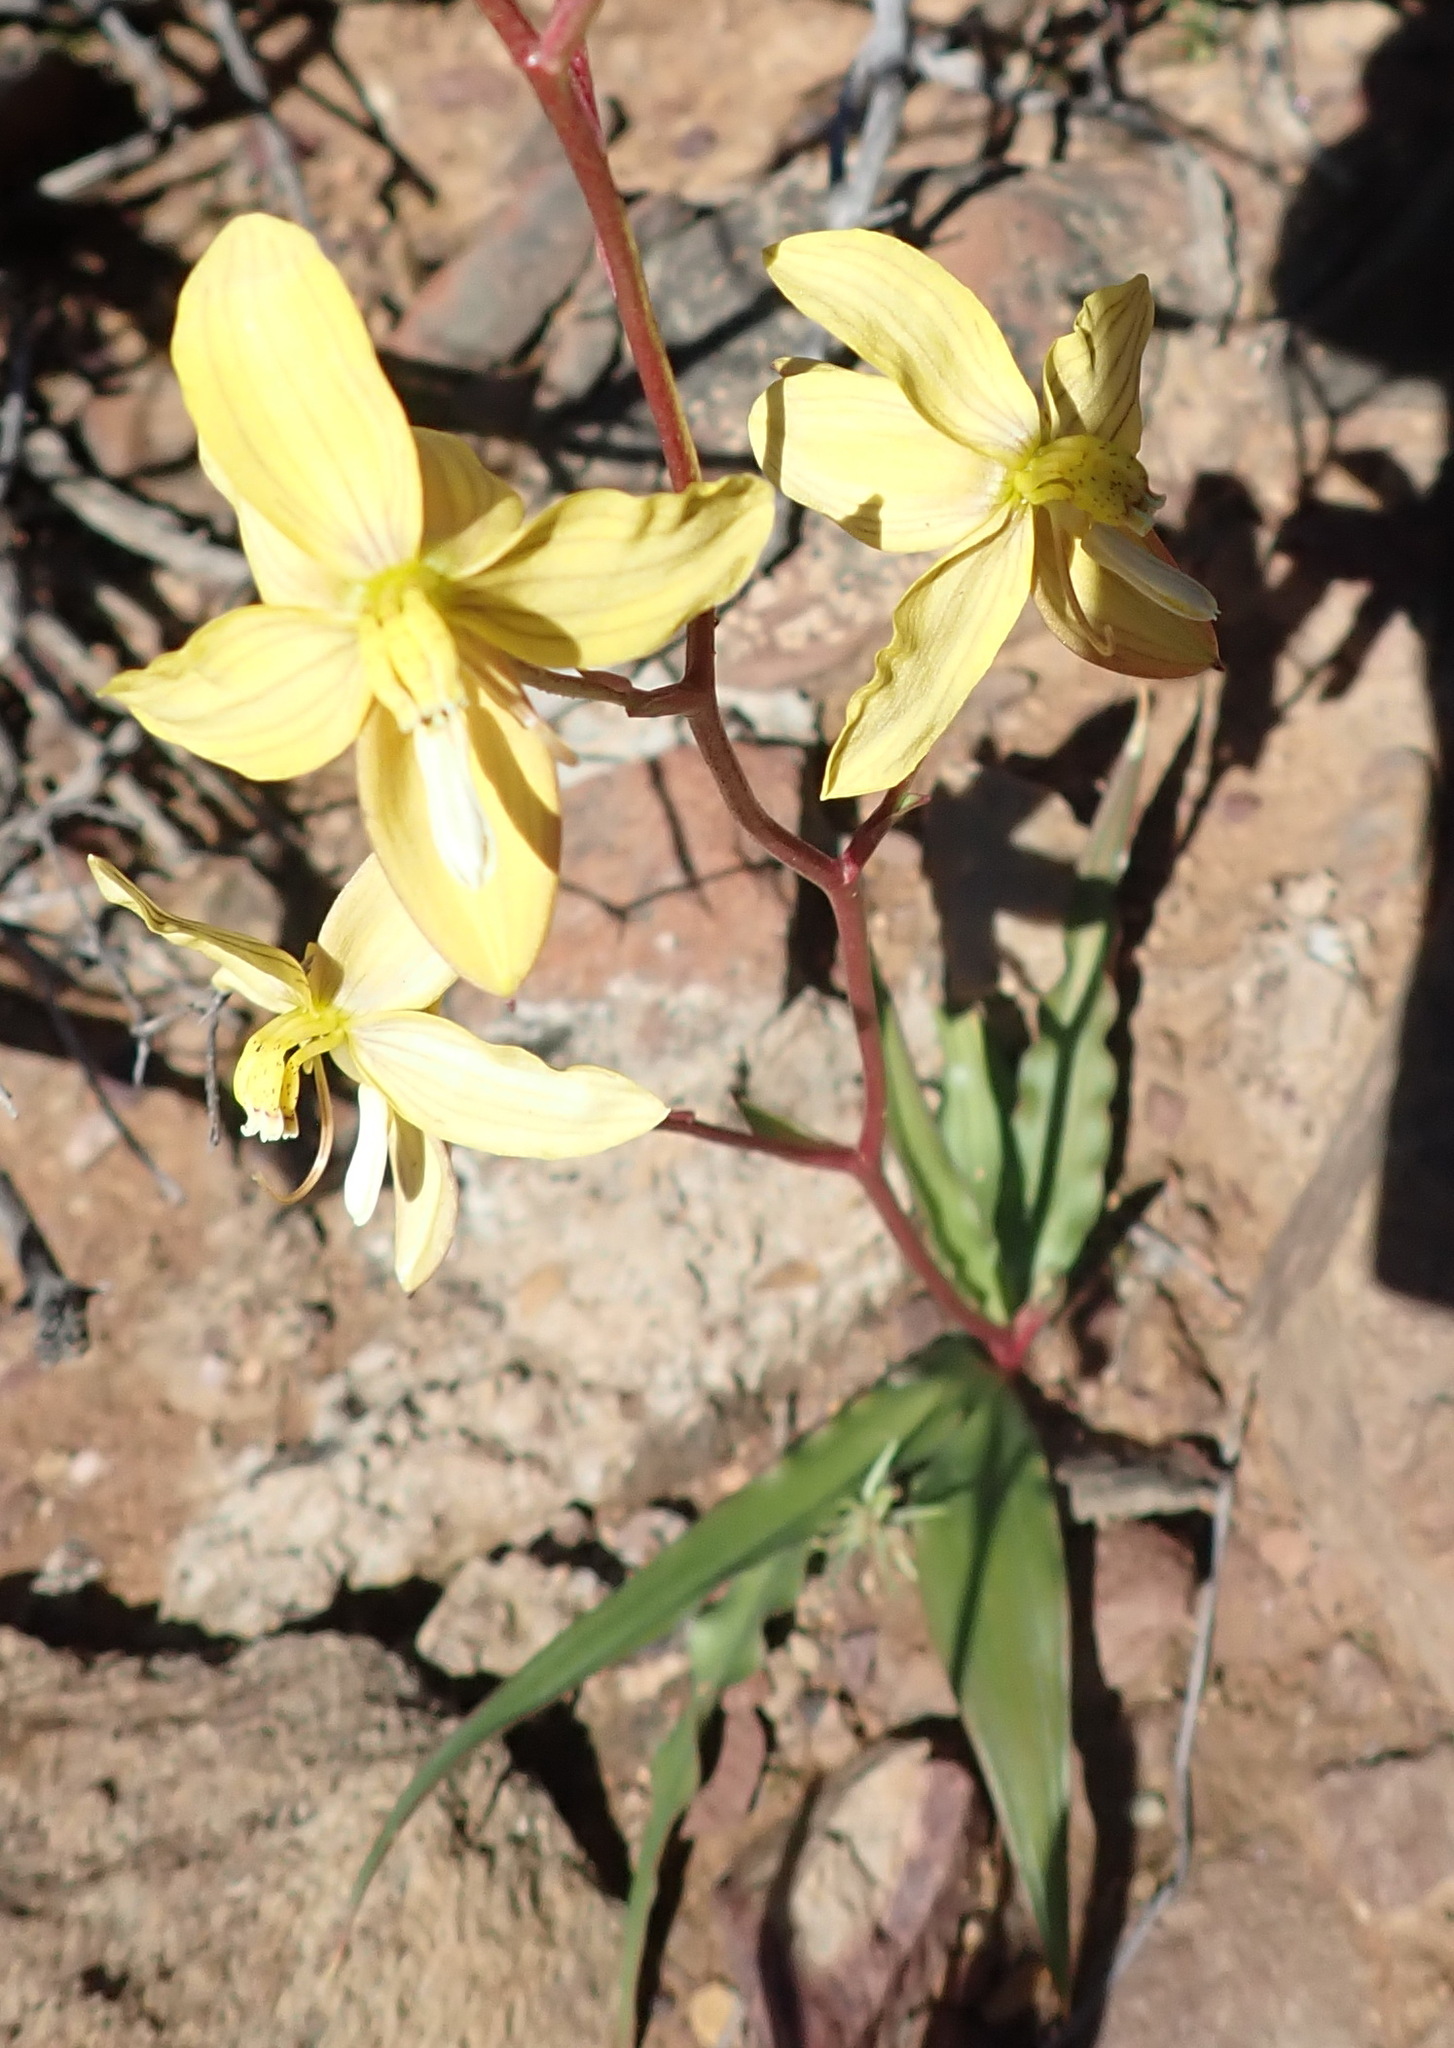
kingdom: Plantae
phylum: Tracheophyta
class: Liliopsida
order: Asparagales
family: Tecophilaeaceae
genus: Cyanella
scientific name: Cyanella lutea
